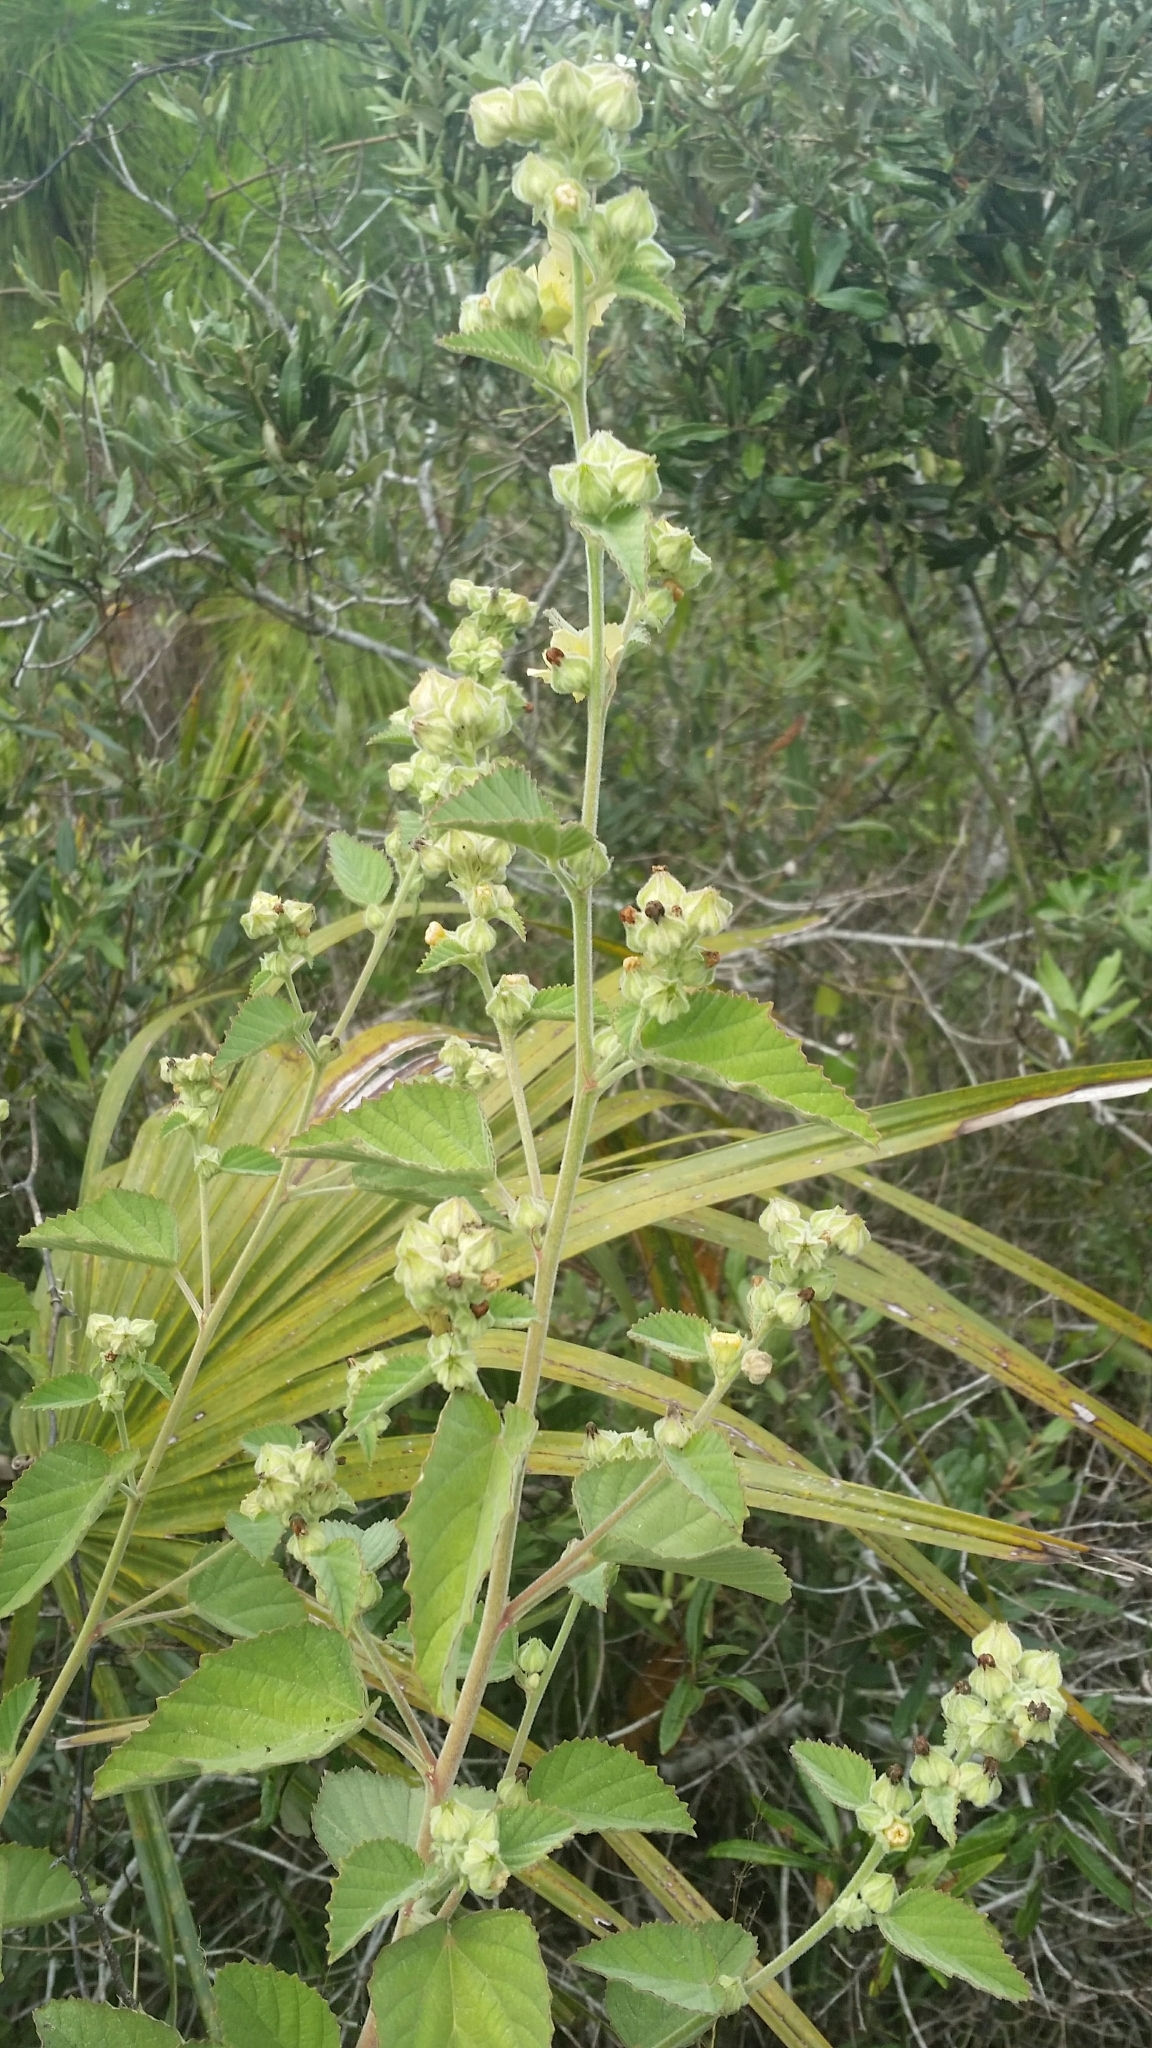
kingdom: Plantae
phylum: Tracheophyta
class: Magnoliopsida
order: Malvales
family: Malvaceae
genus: Sida
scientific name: Sida cordifolia
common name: Ilima
